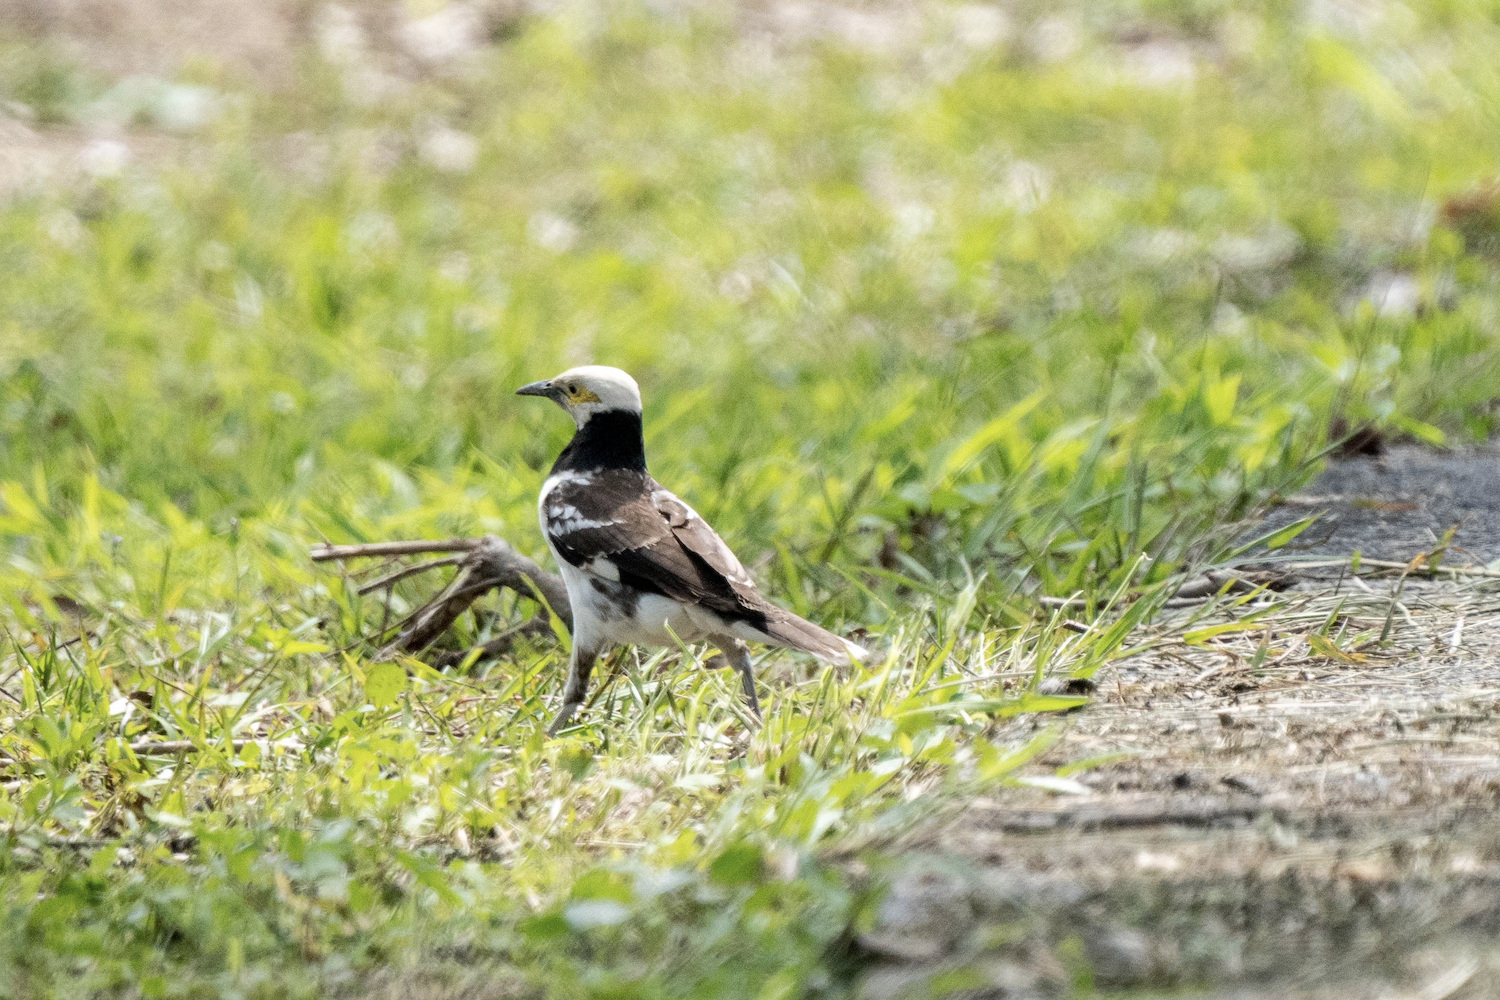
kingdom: Animalia
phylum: Chordata
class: Aves
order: Passeriformes
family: Sturnidae
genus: Gracupica
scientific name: Gracupica nigricollis
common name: Black-collared starling
